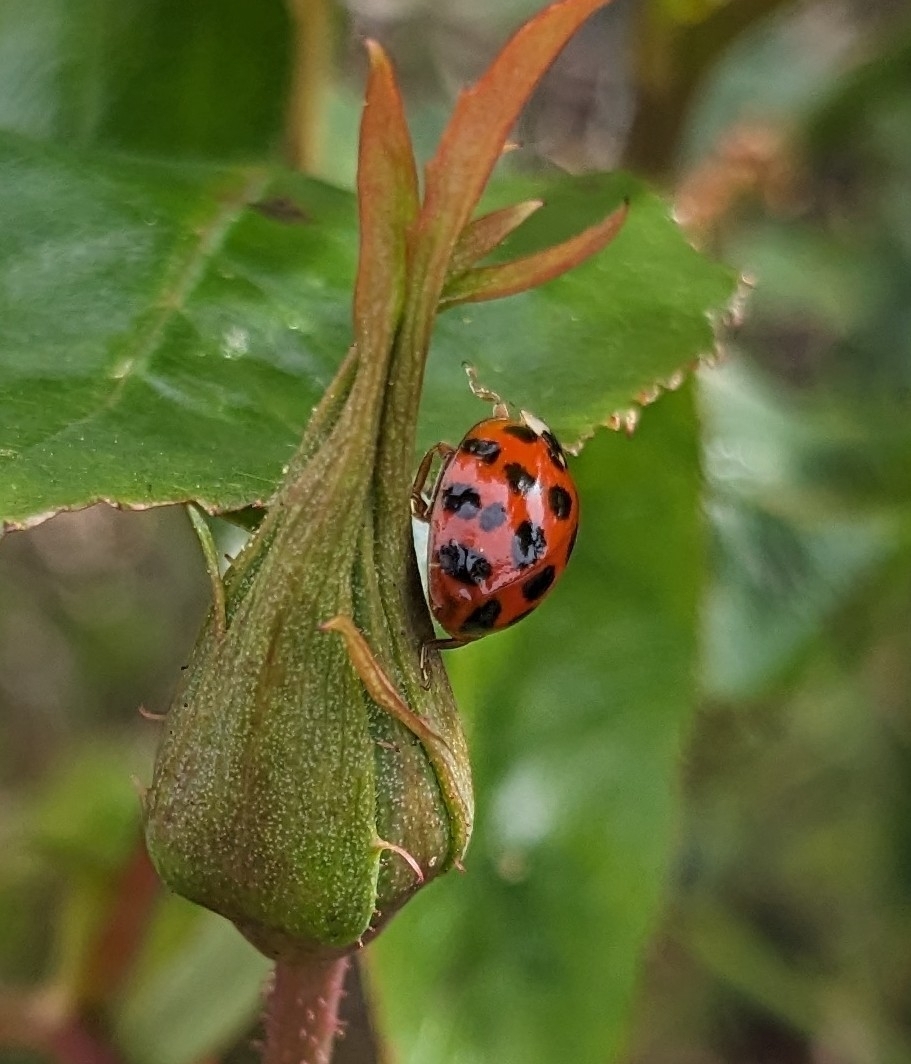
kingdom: Animalia
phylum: Arthropoda
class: Insecta
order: Coleoptera
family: Coccinellidae
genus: Harmonia
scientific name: Harmonia axyridis
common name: Harlequin ladybird
